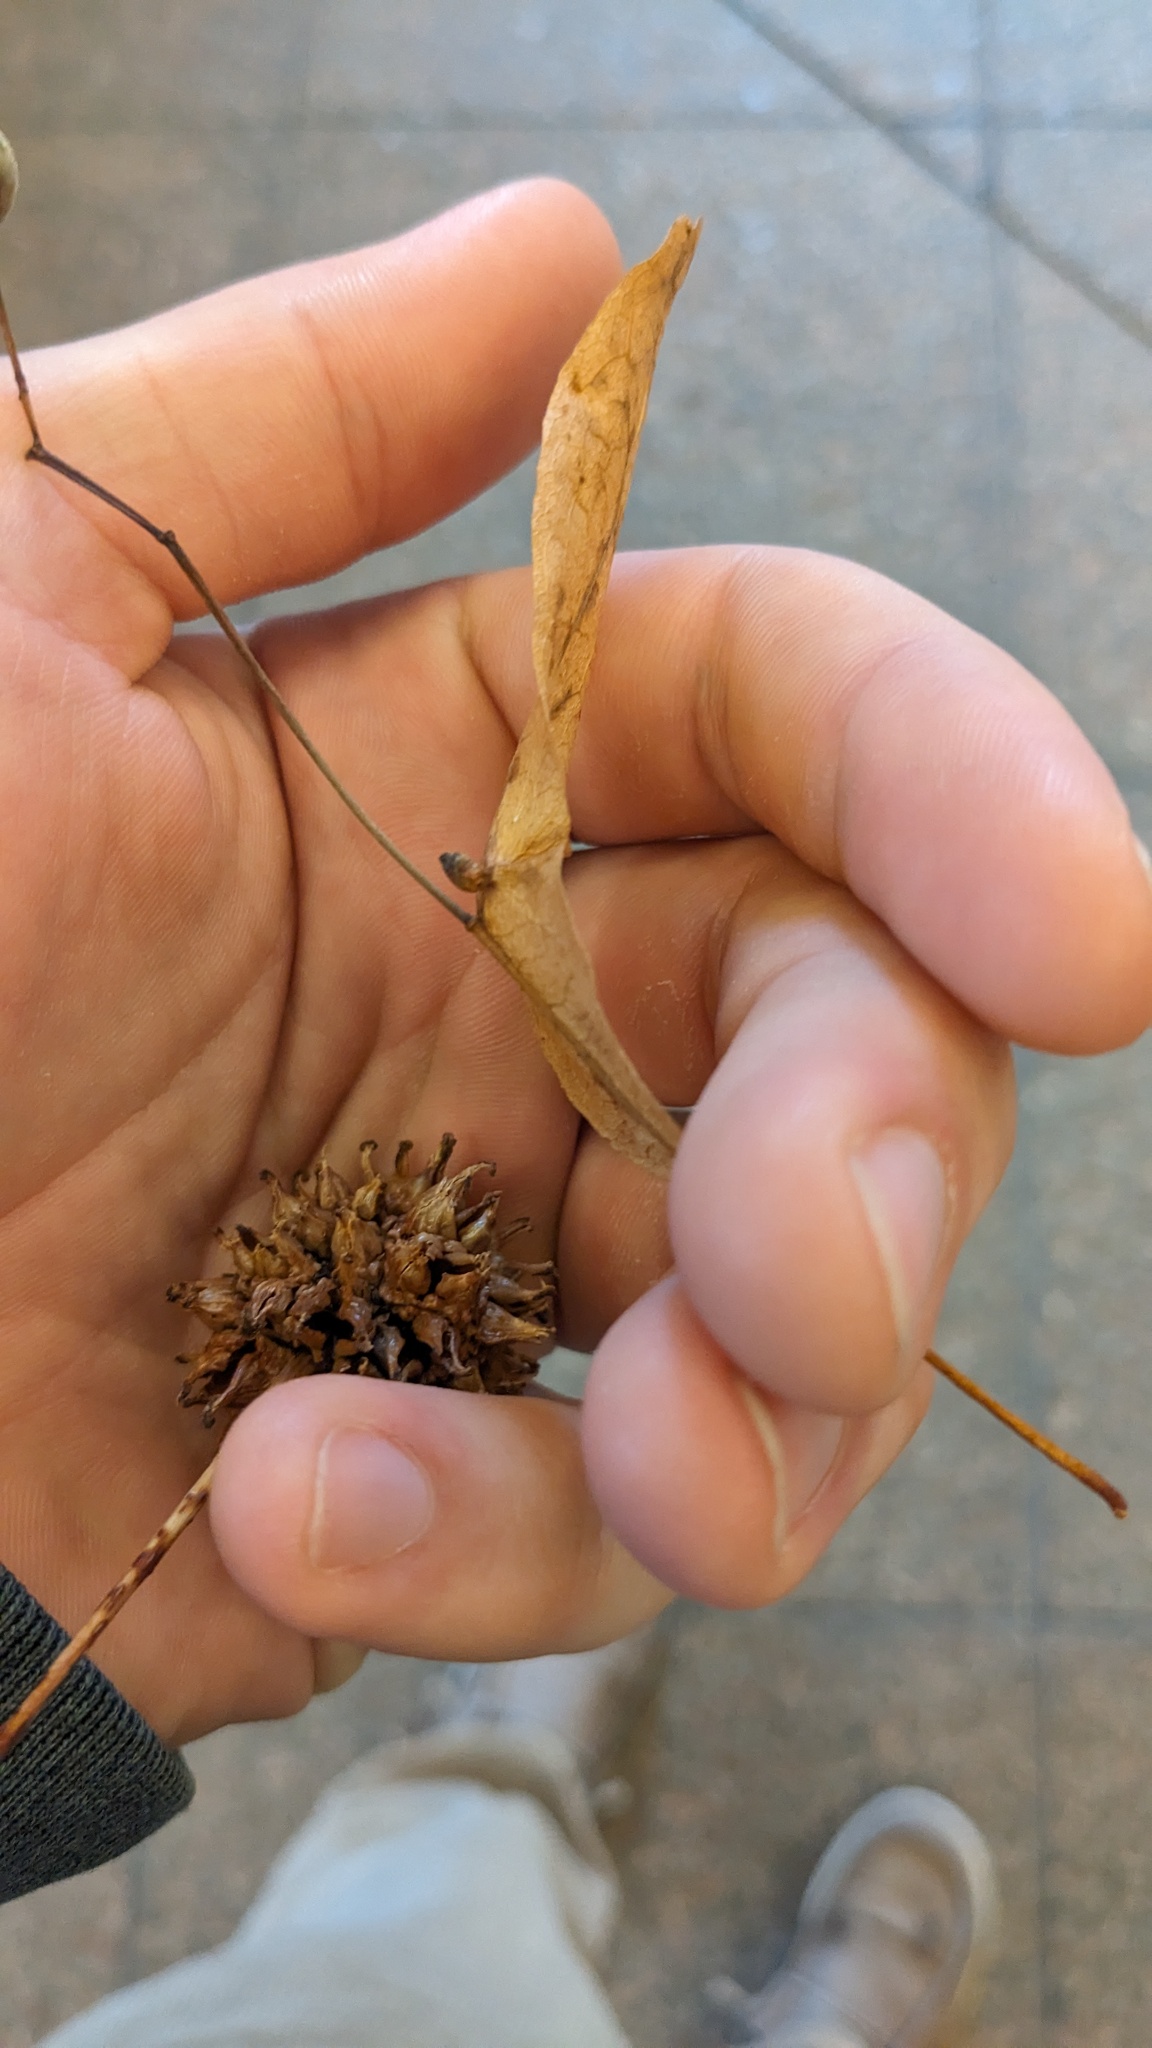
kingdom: Animalia
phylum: Arthropoda
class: Arachnida
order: Trombidiformes
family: Phytoptidae
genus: Phytoptus
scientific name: Phytoptus abnormis
